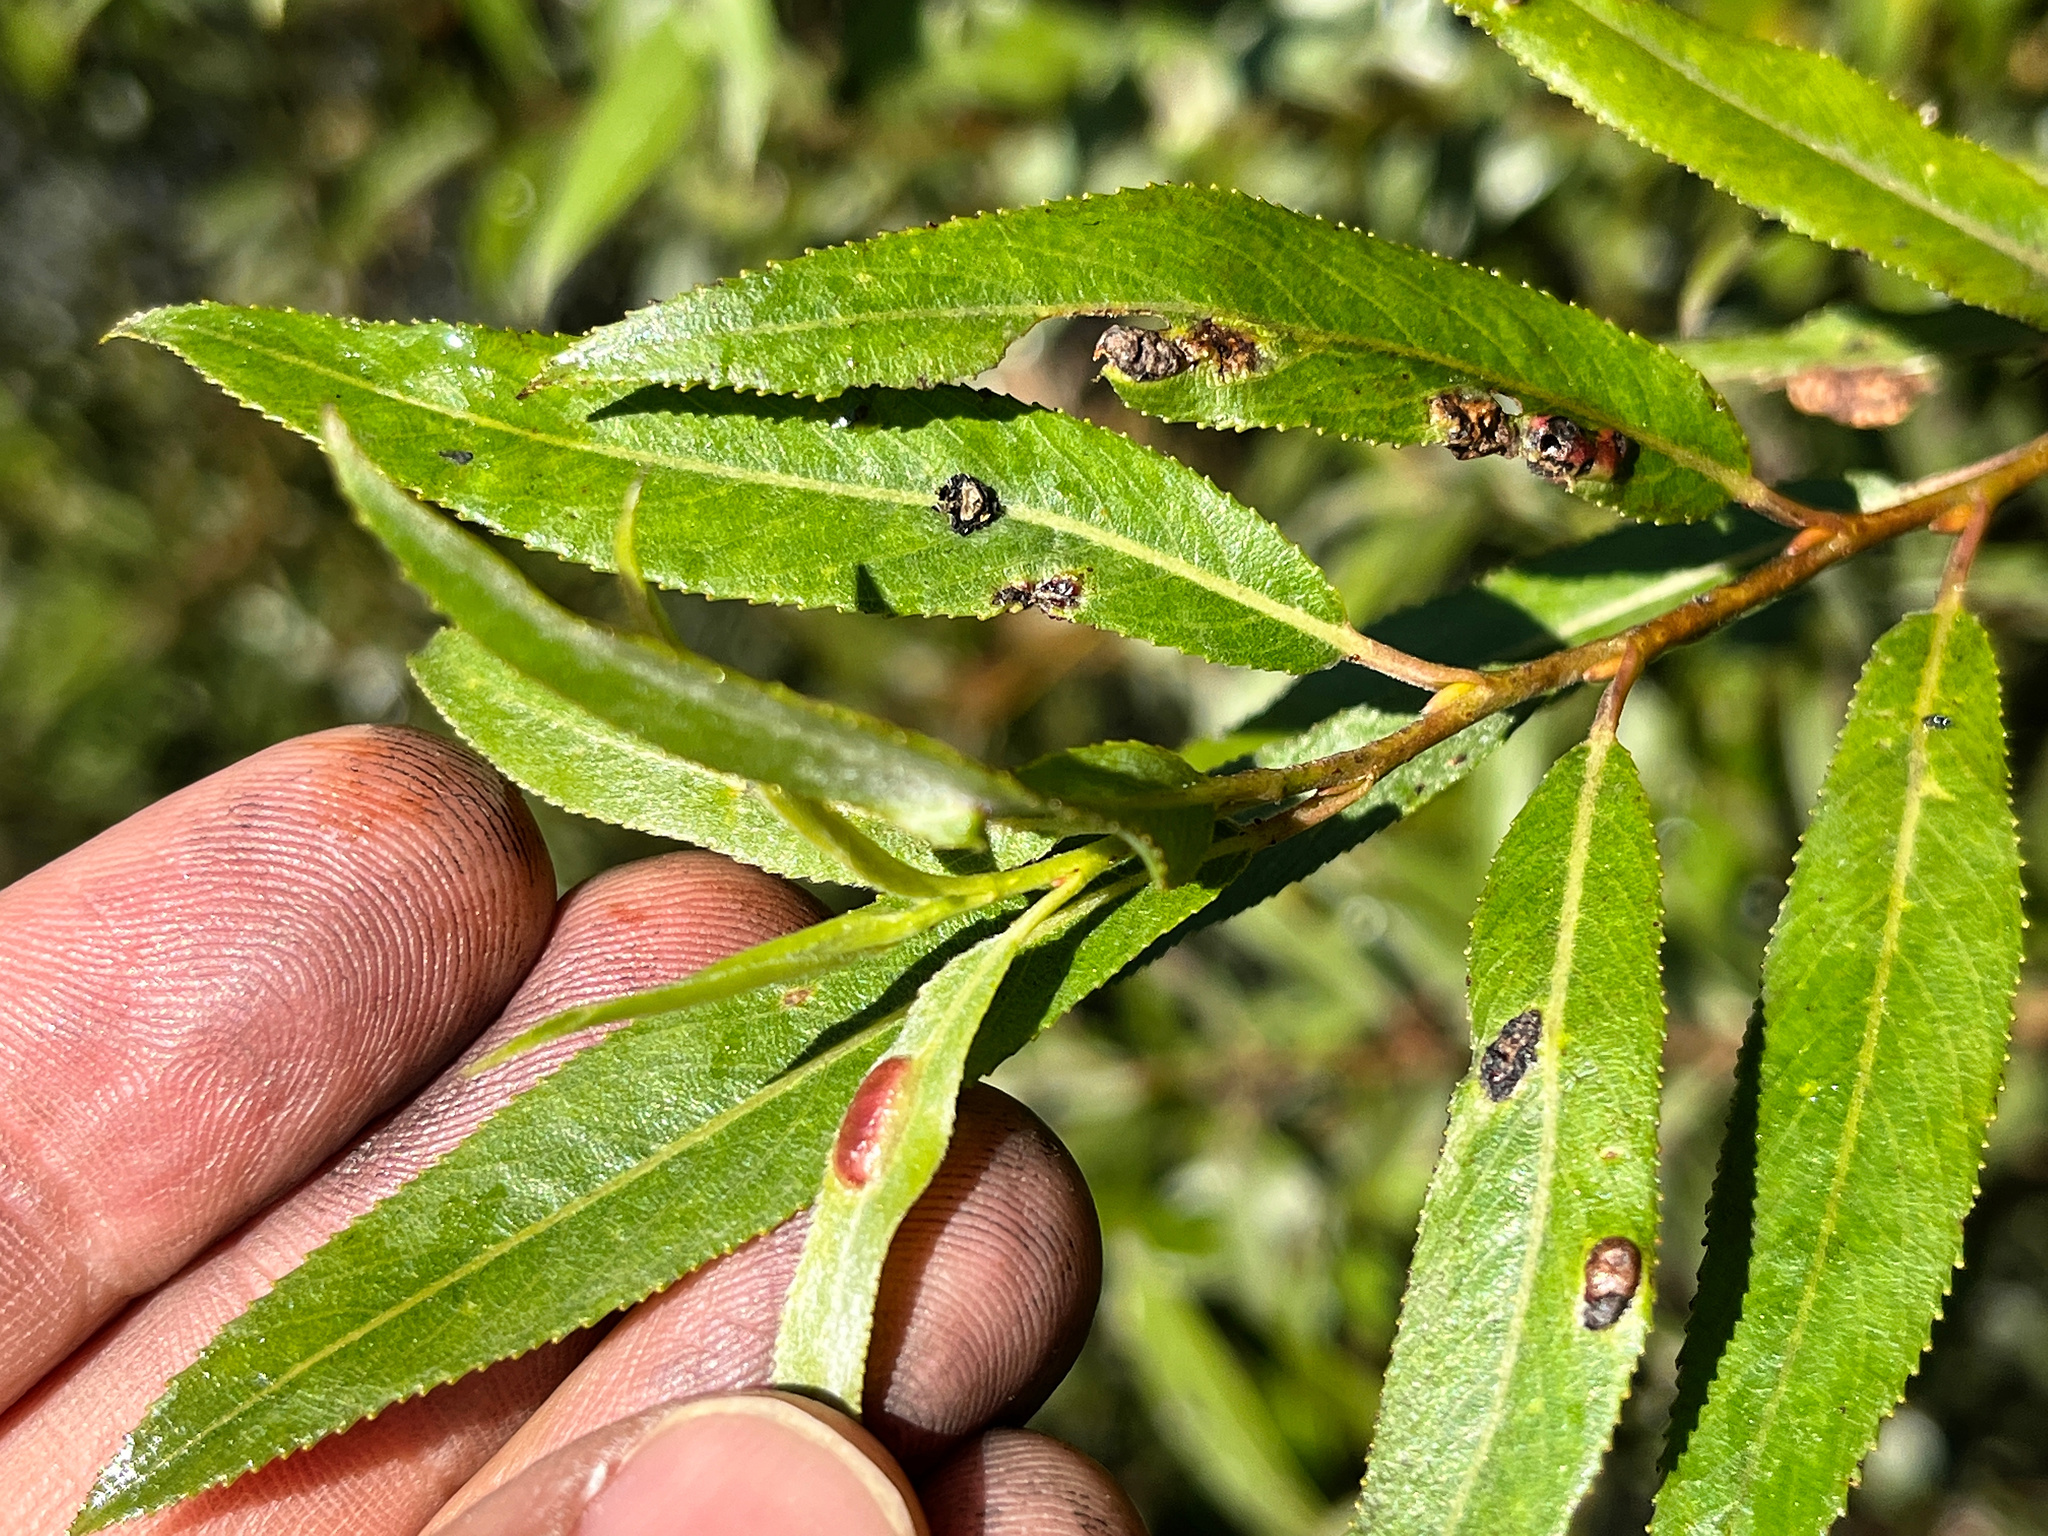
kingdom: Animalia
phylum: Arthropoda
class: Insecta
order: Hymenoptera
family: Tenthredinidae
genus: Pontania
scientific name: Pontania proxima
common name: Common sawfly
